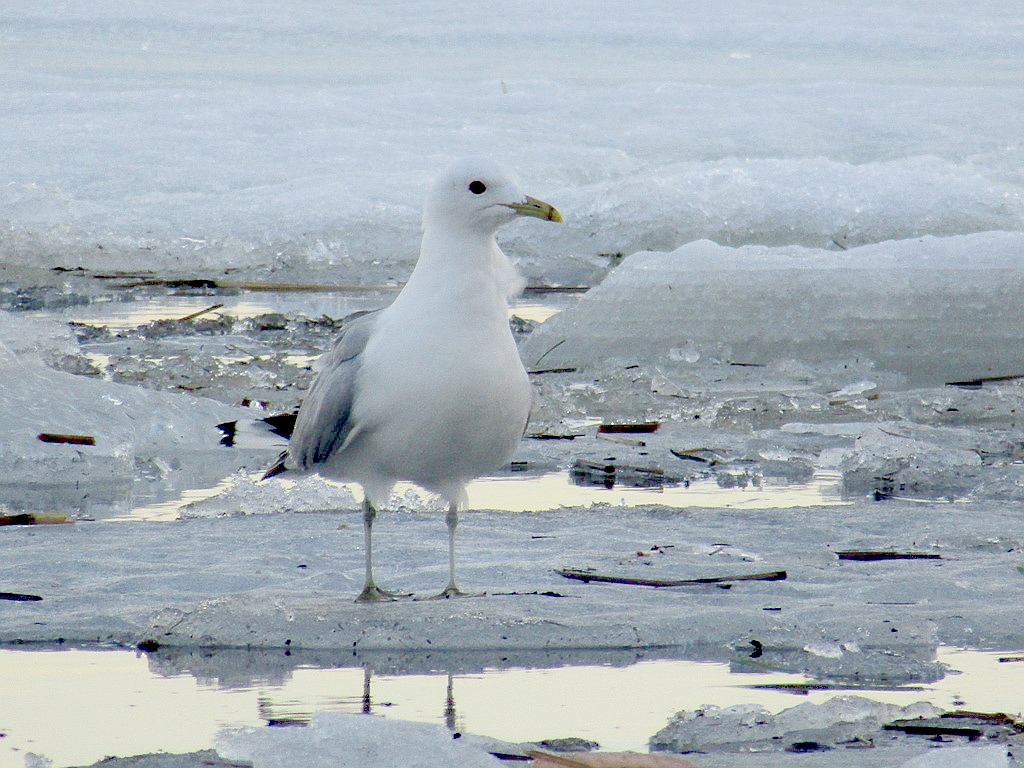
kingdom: Animalia
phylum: Chordata
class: Aves
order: Charadriiformes
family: Laridae
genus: Larus
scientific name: Larus canus
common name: Mew gull
